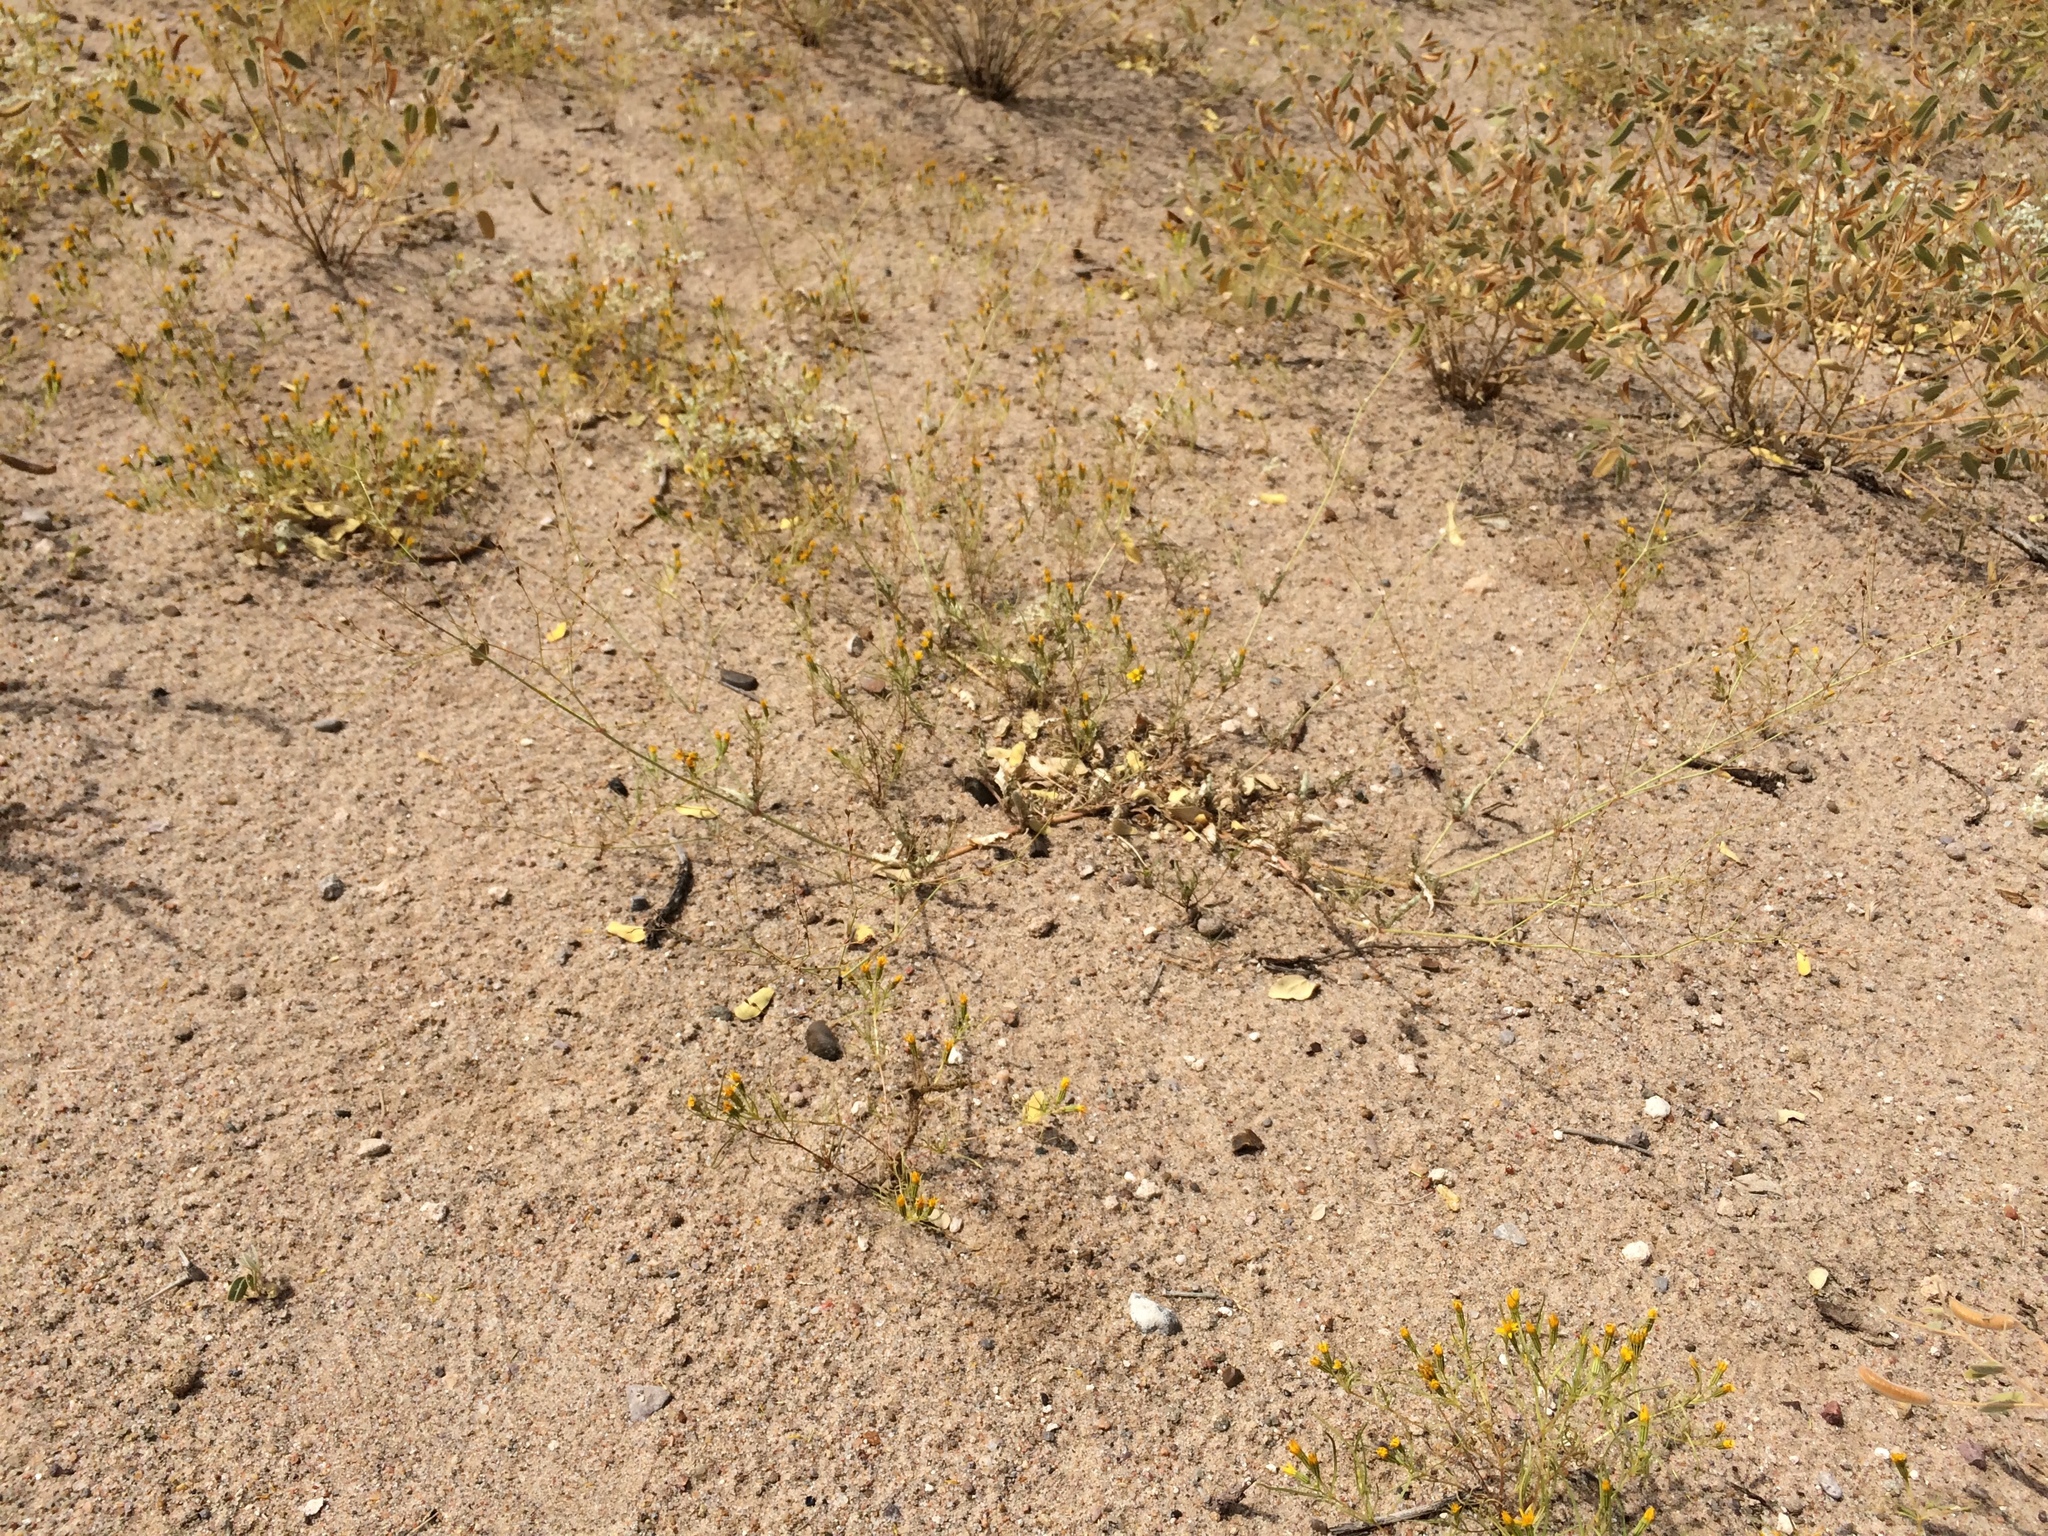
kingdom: Plantae
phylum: Tracheophyta
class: Magnoliopsida
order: Caryophyllales
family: Nyctaginaceae
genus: Boerhavia
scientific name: Boerhavia torreyana
